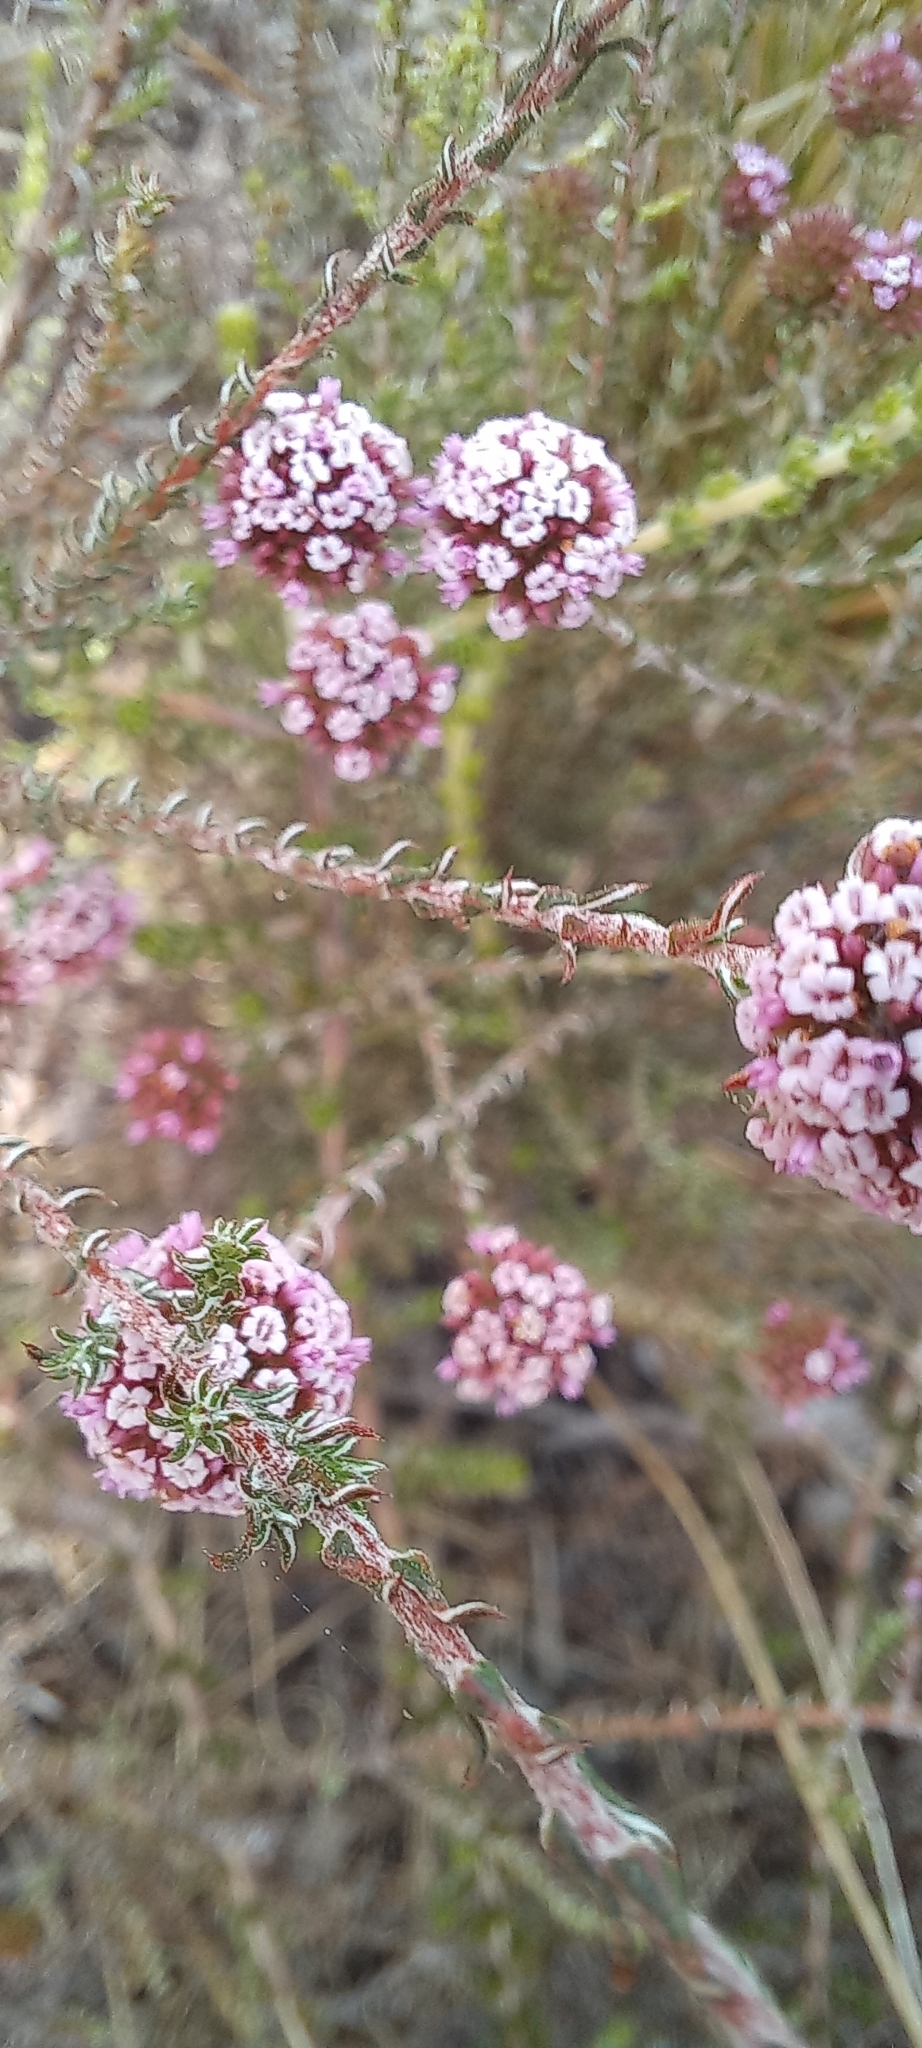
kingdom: Plantae
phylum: Tracheophyta
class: Magnoliopsida
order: Asterales
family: Asteraceae
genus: Stoebe
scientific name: Stoebe capitata
